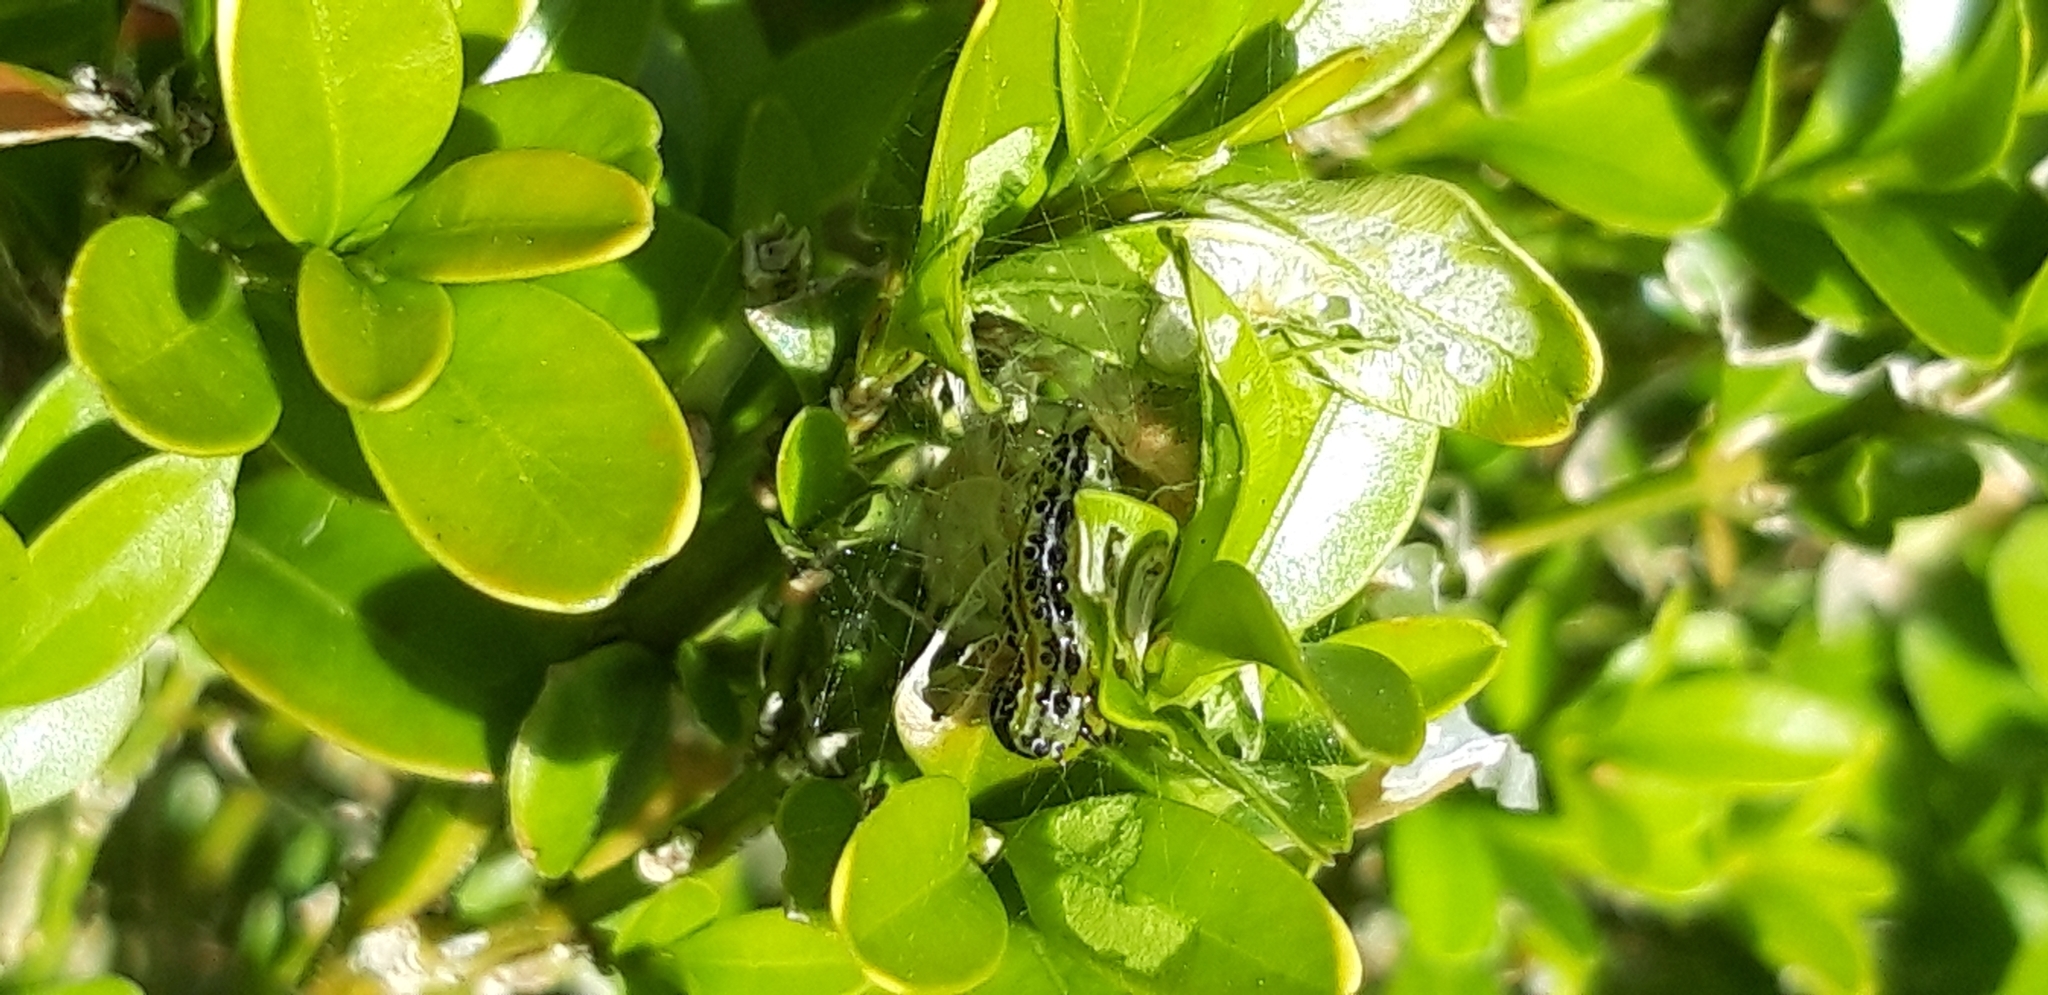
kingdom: Animalia
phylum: Arthropoda
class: Insecta
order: Lepidoptera
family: Crambidae
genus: Cydalima
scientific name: Cydalima perspectalis
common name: Box tree moth
